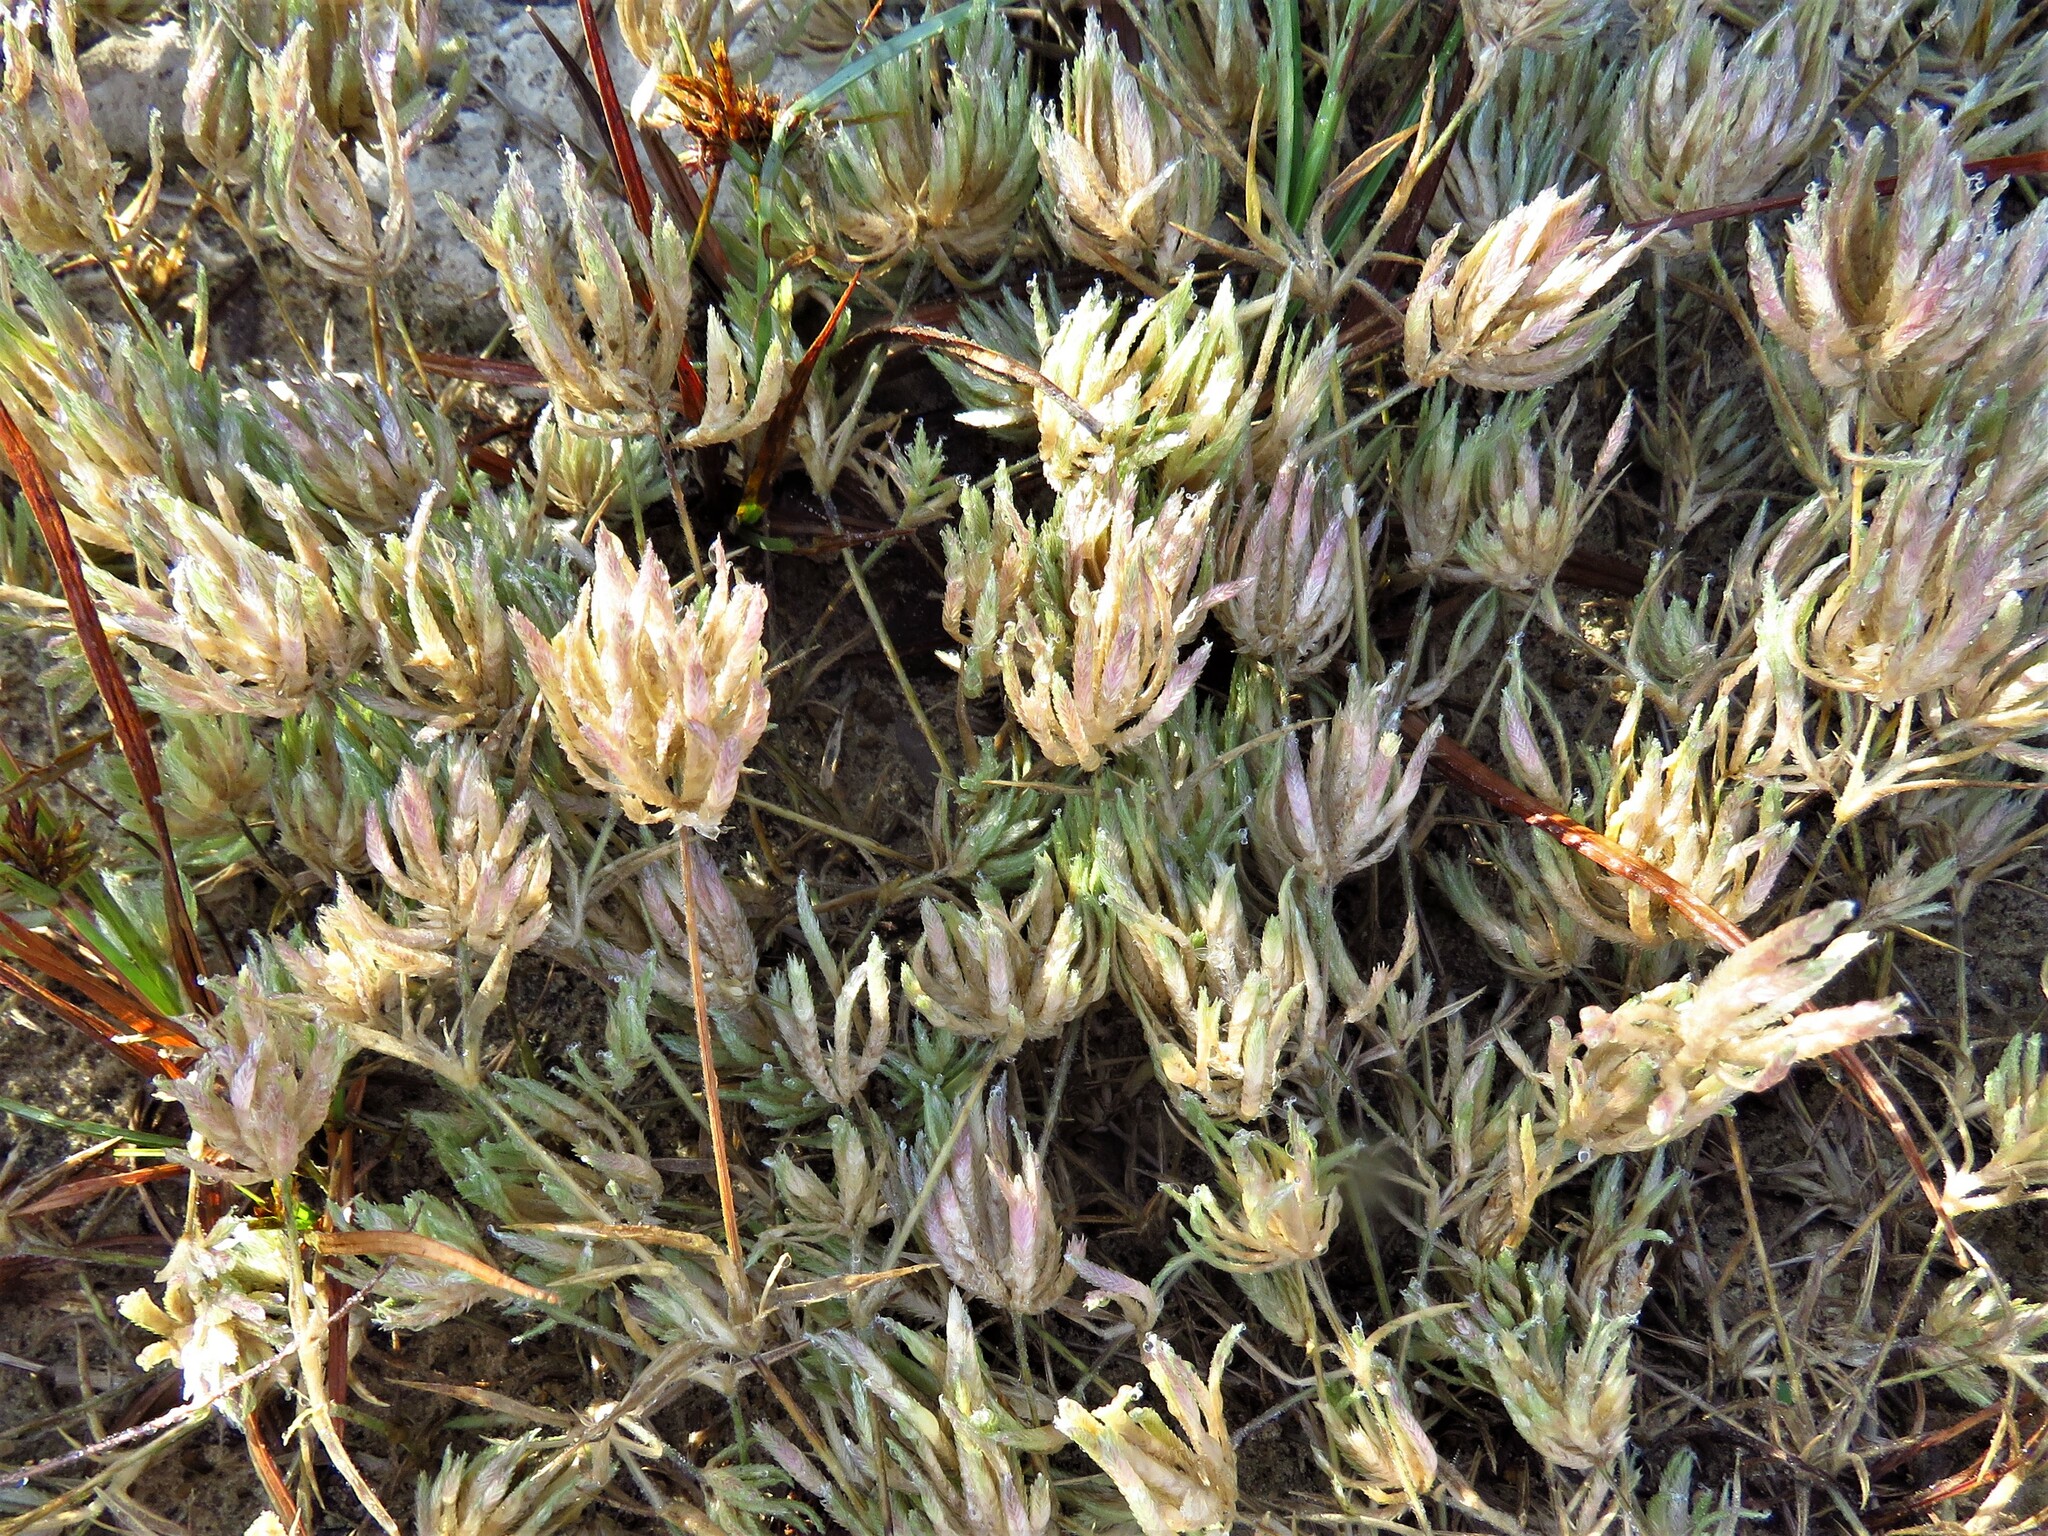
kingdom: Plantae
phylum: Tracheophyta
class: Liliopsida
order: Poales
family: Poaceae
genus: Eragrostis
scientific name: Eragrostis reptans
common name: Creeping love grass
